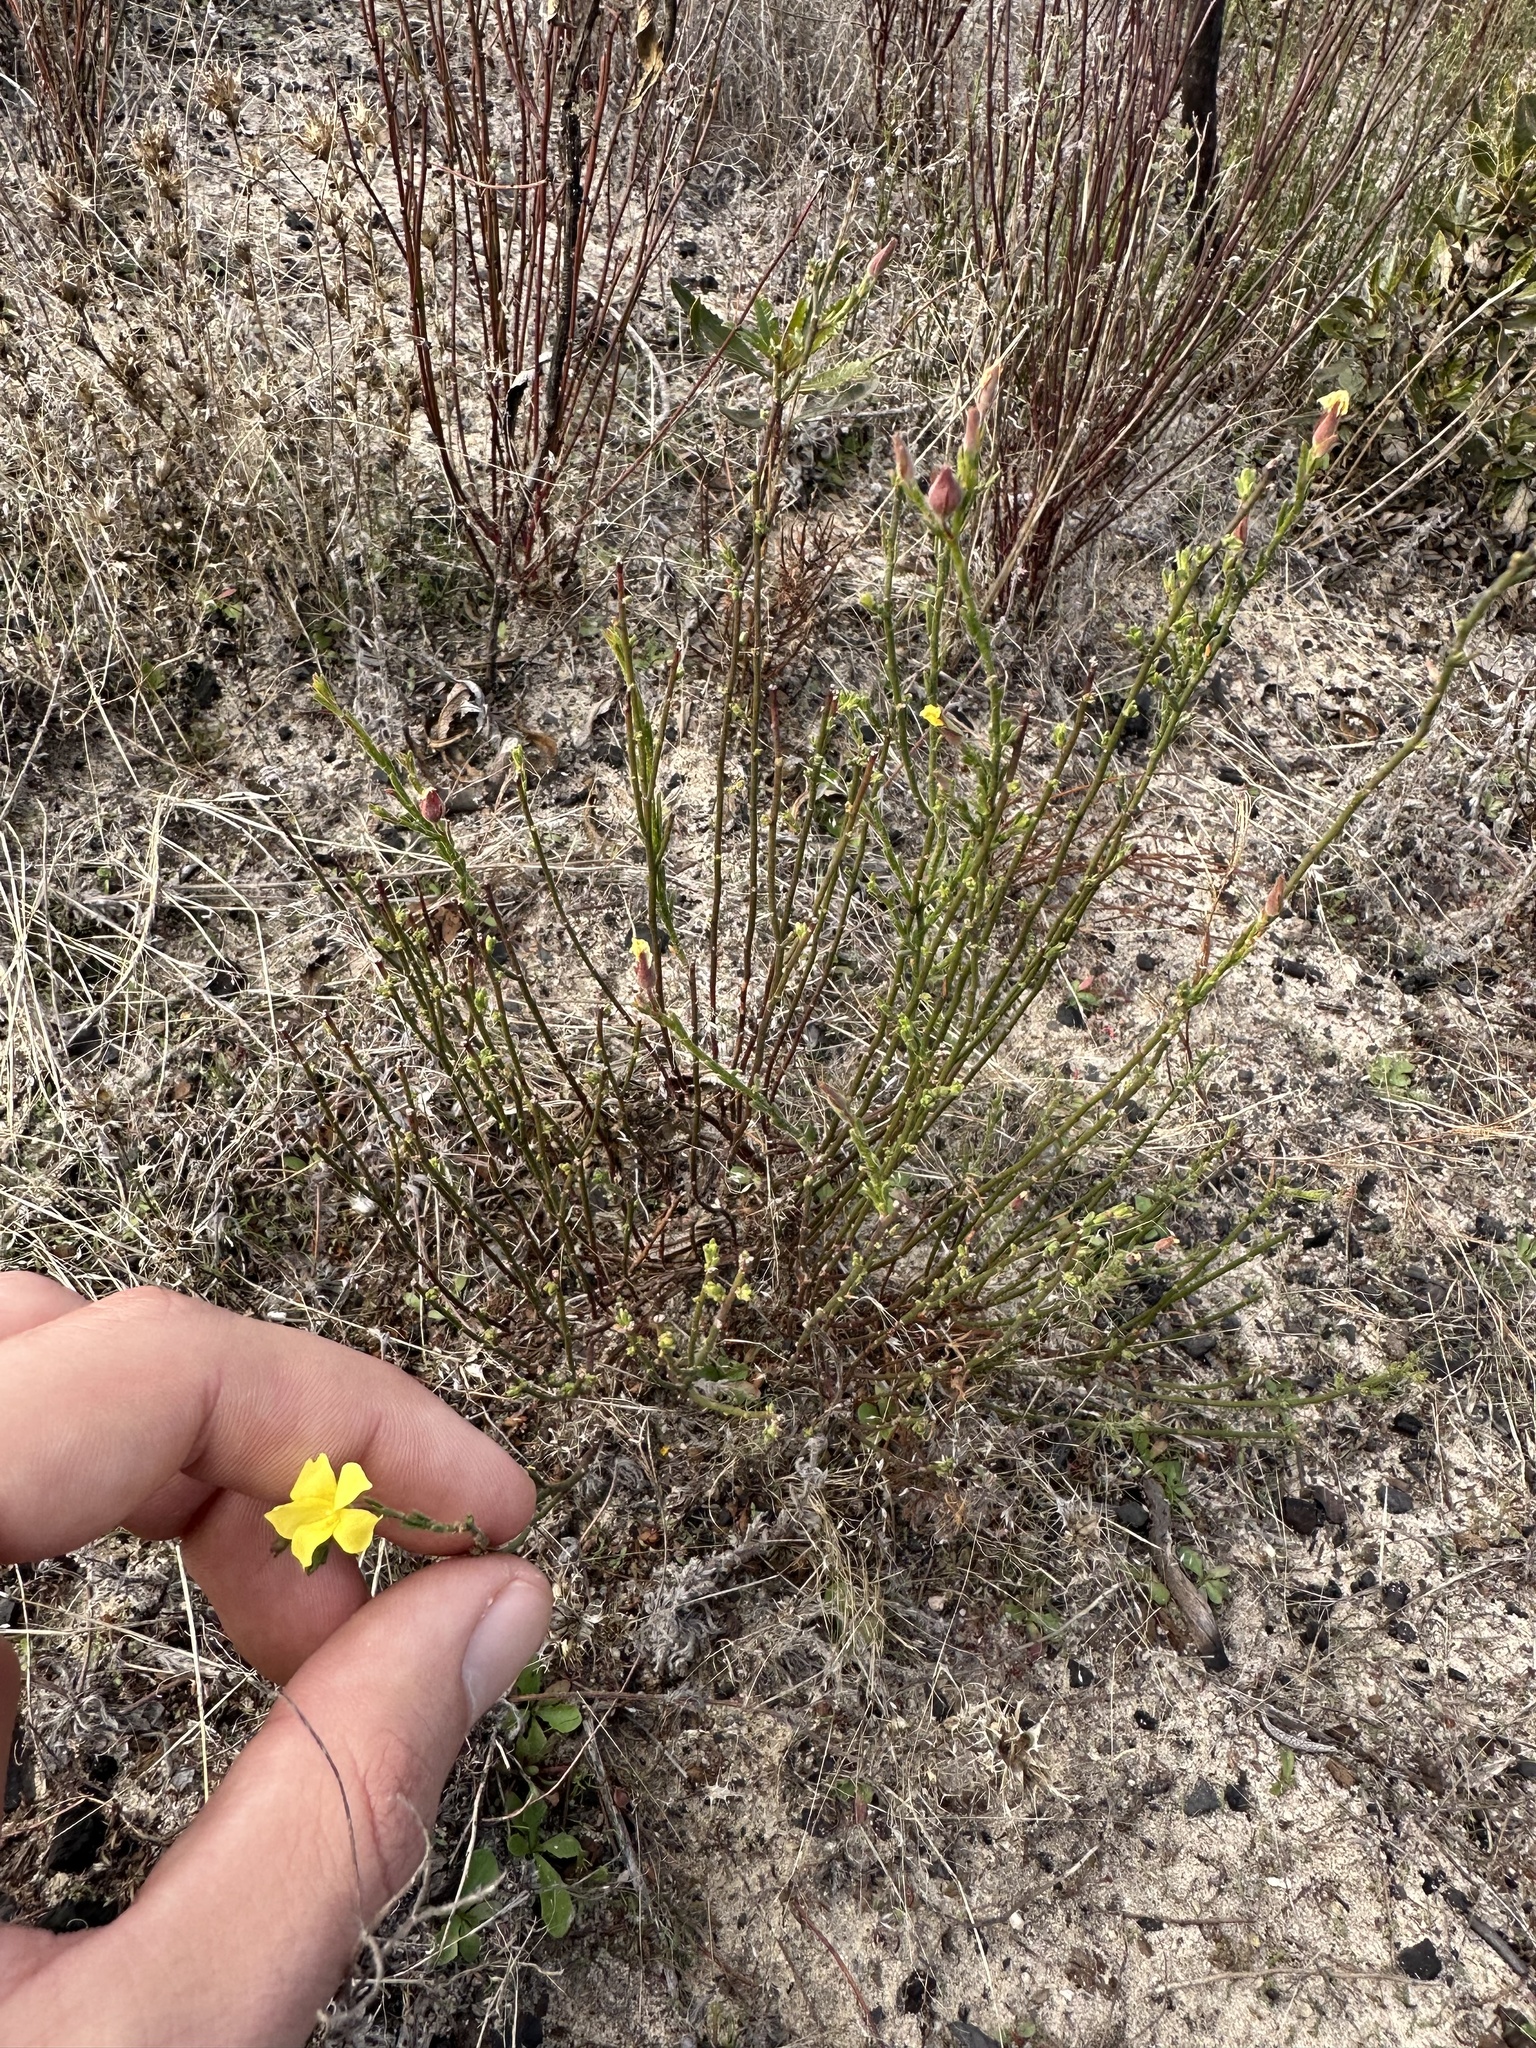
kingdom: Plantae
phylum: Tracheophyta
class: Magnoliopsida
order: Malvales
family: Cistaceae
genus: Crocanthemum
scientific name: Crocanthemum scoparium
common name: Broom-rose
